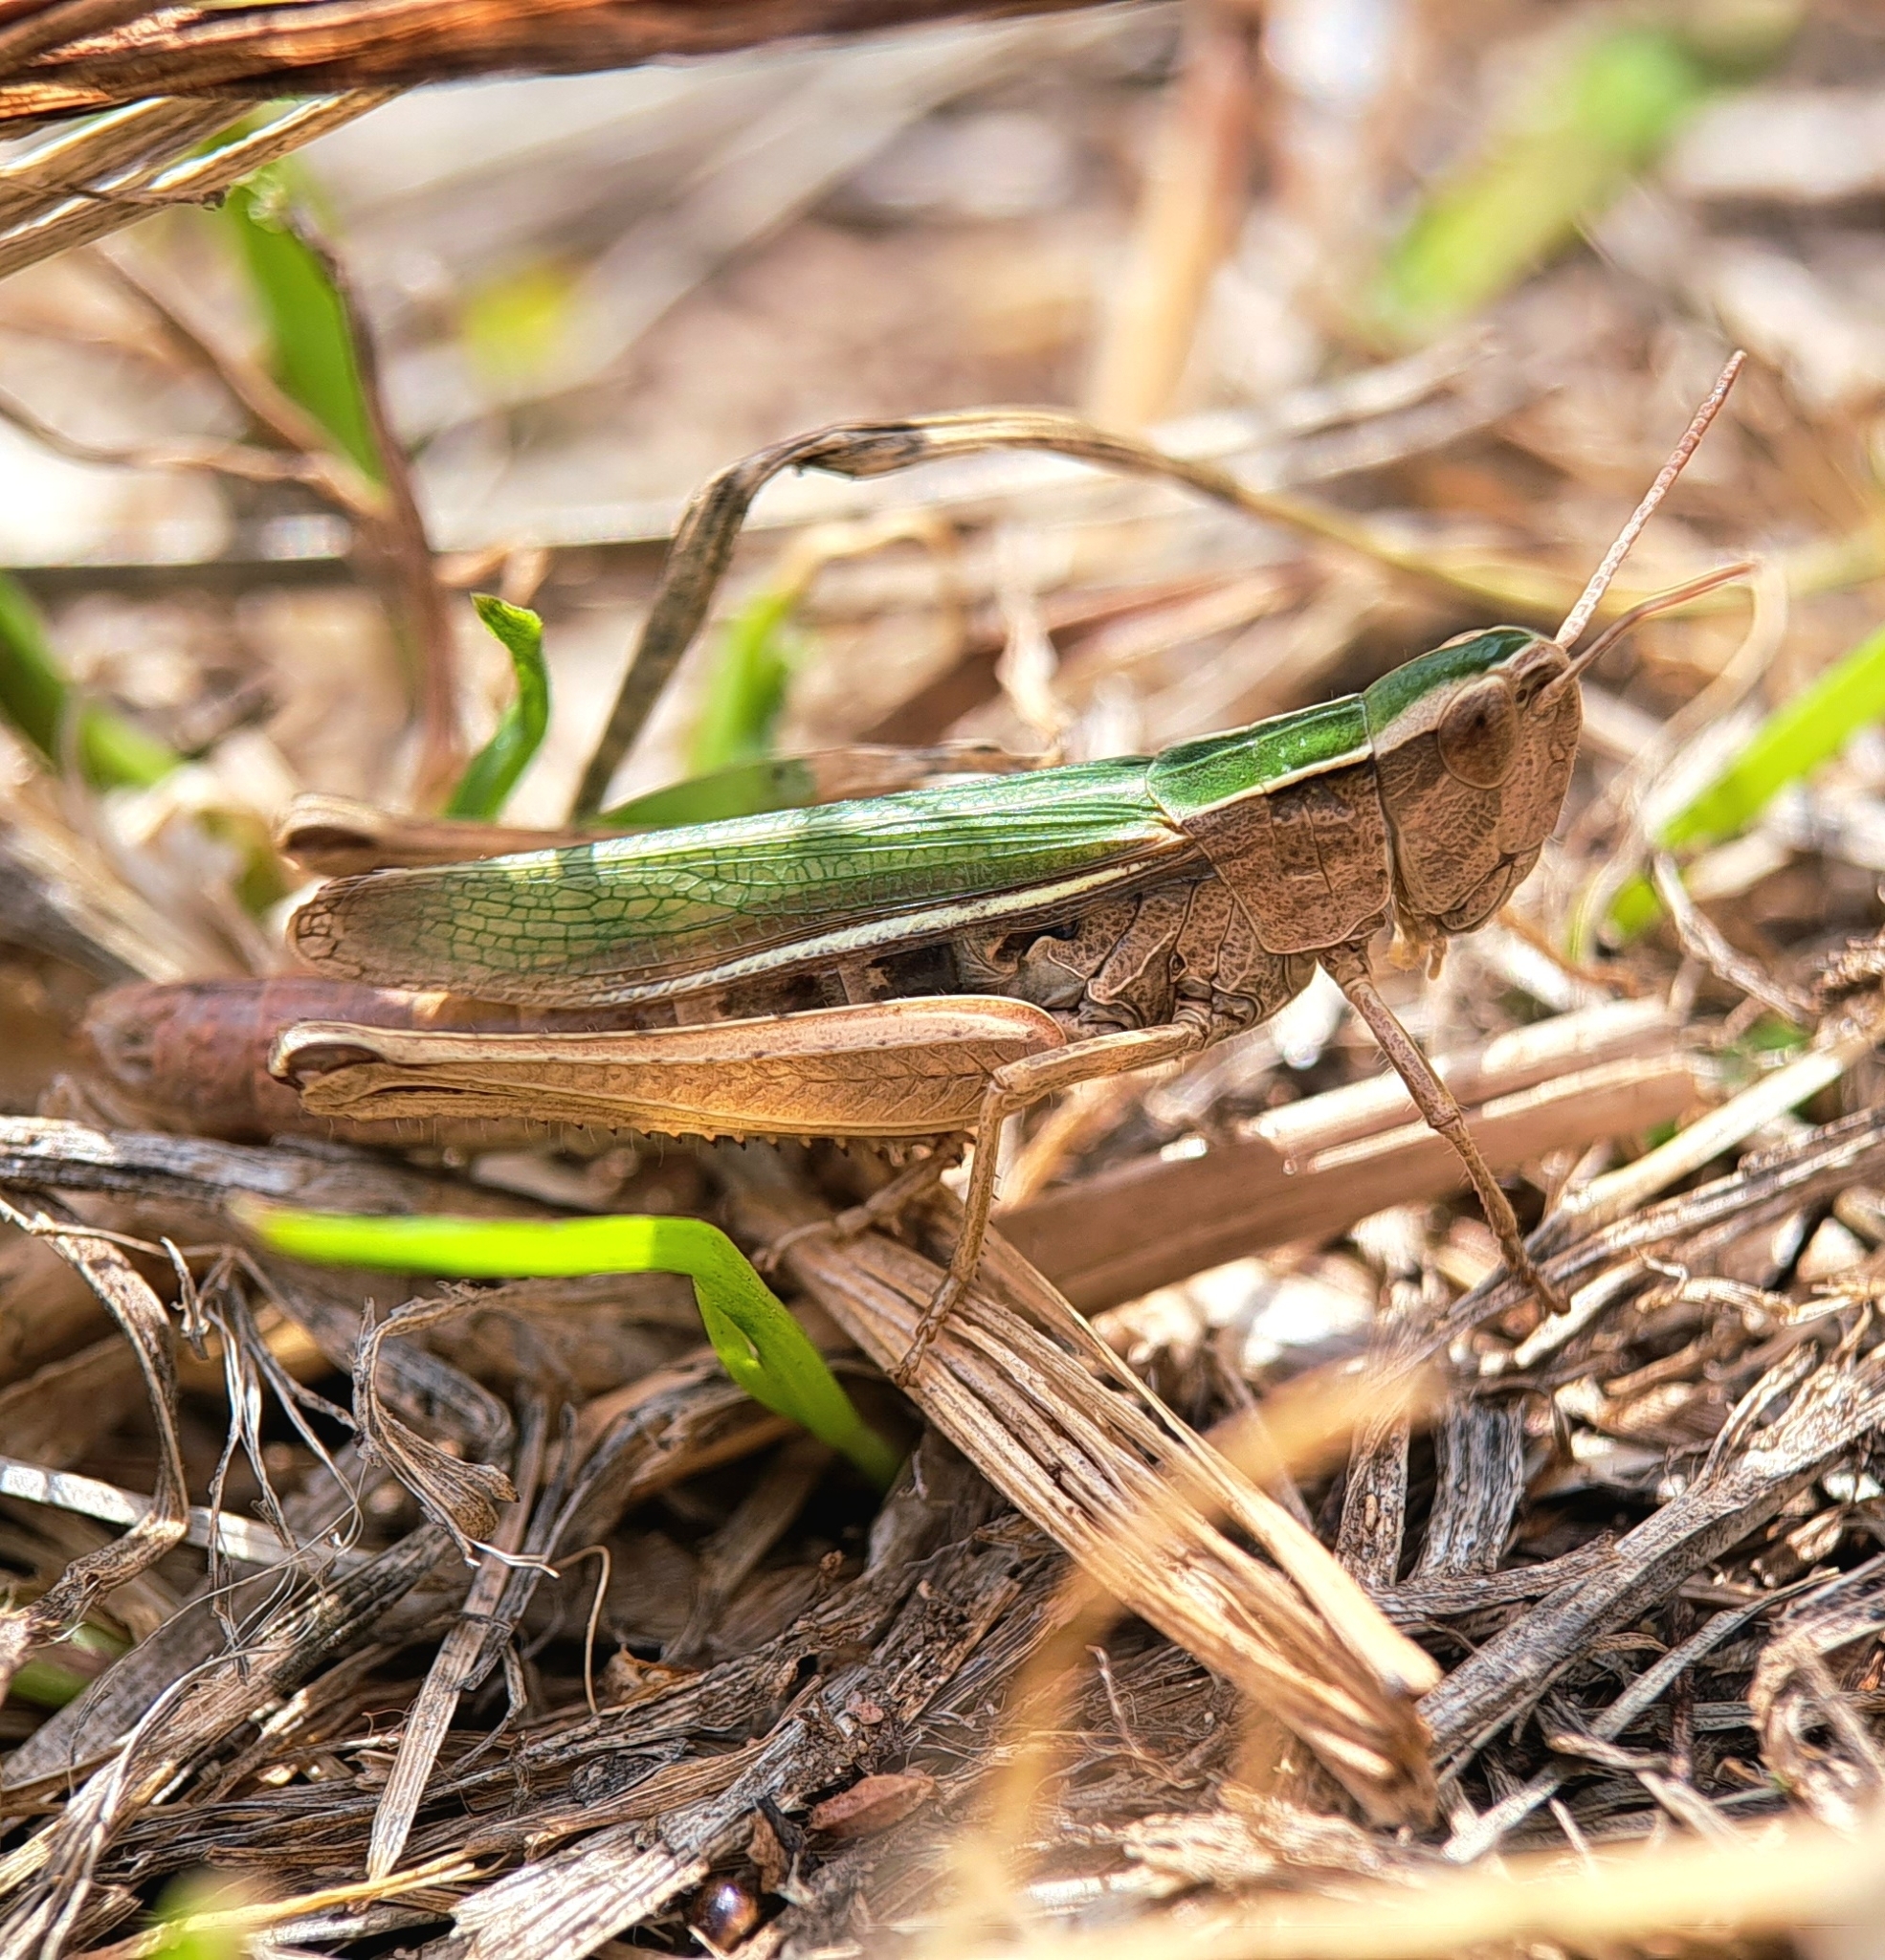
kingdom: Animalia
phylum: Arthropoda
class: Insecta
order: Orthoptera
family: Acrididae
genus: Chorthippus
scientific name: Chorthippus albomarginatus
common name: Lesser marsh grasshopper
